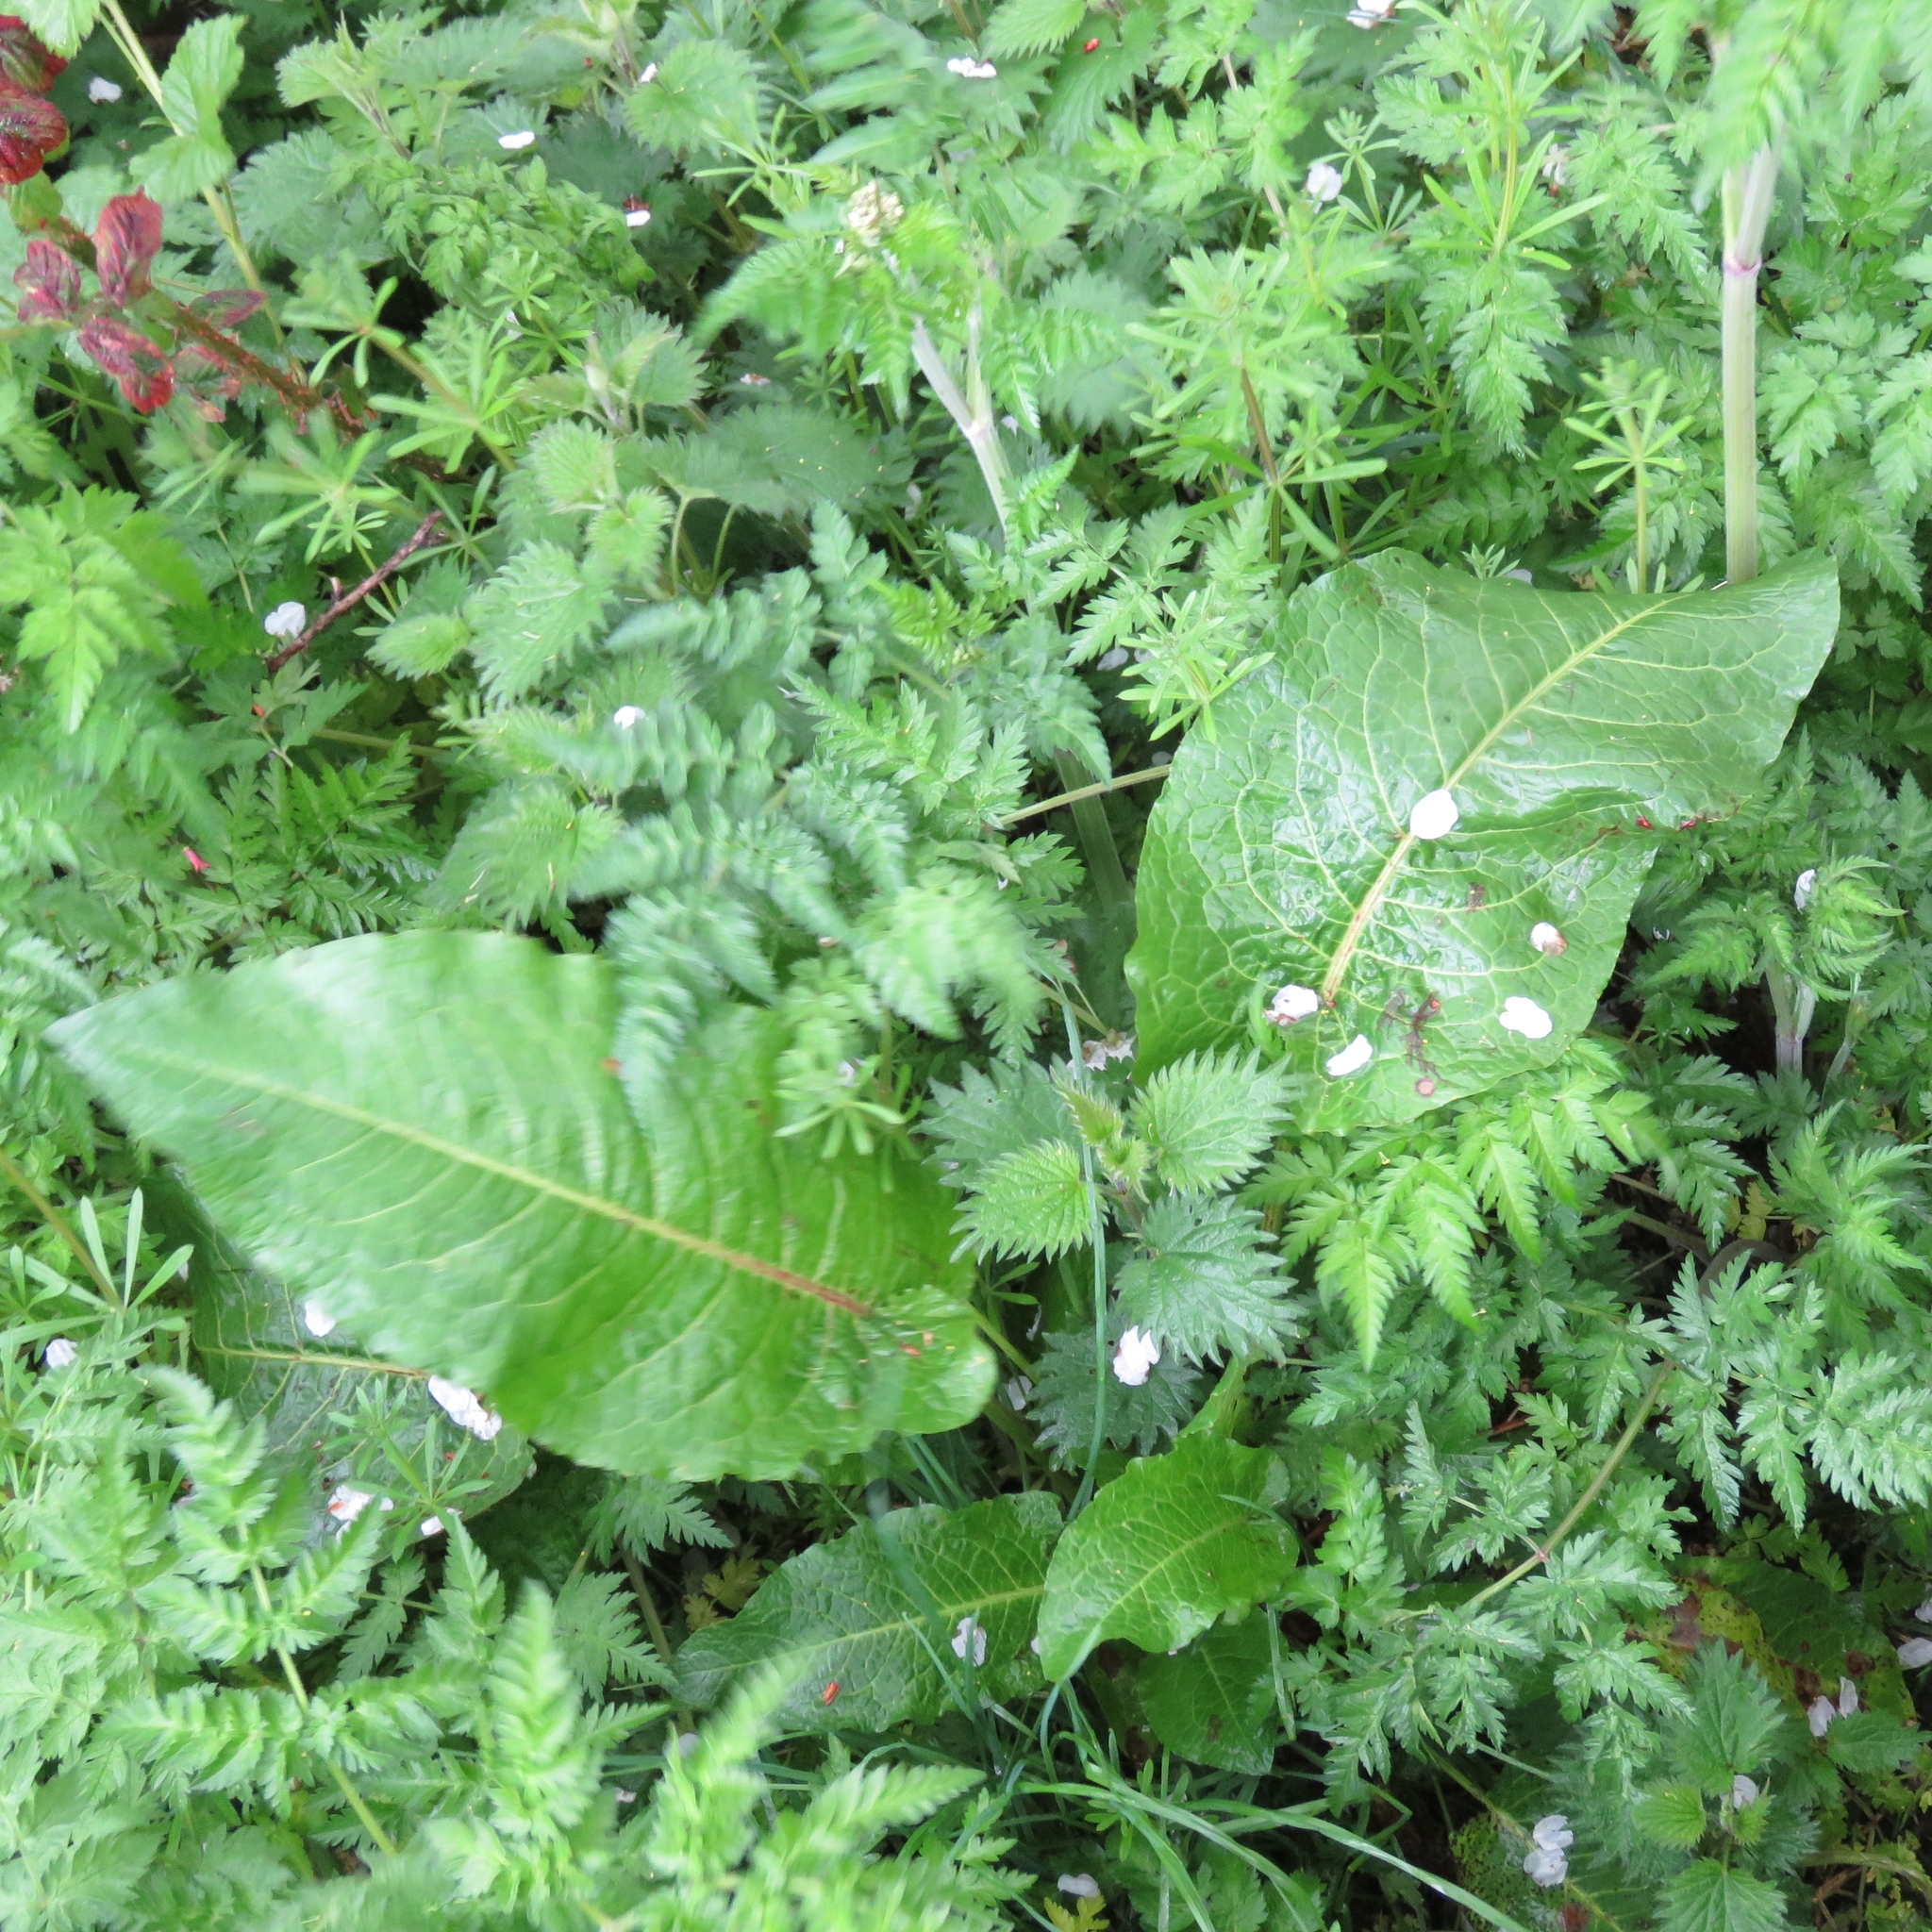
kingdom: Plantae
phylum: Tracheophyta
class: Magnoliopsida
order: Caryophyllales
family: Polygonaceae
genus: Rumex
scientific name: Rumex obtusifolius
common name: Bitter dock
